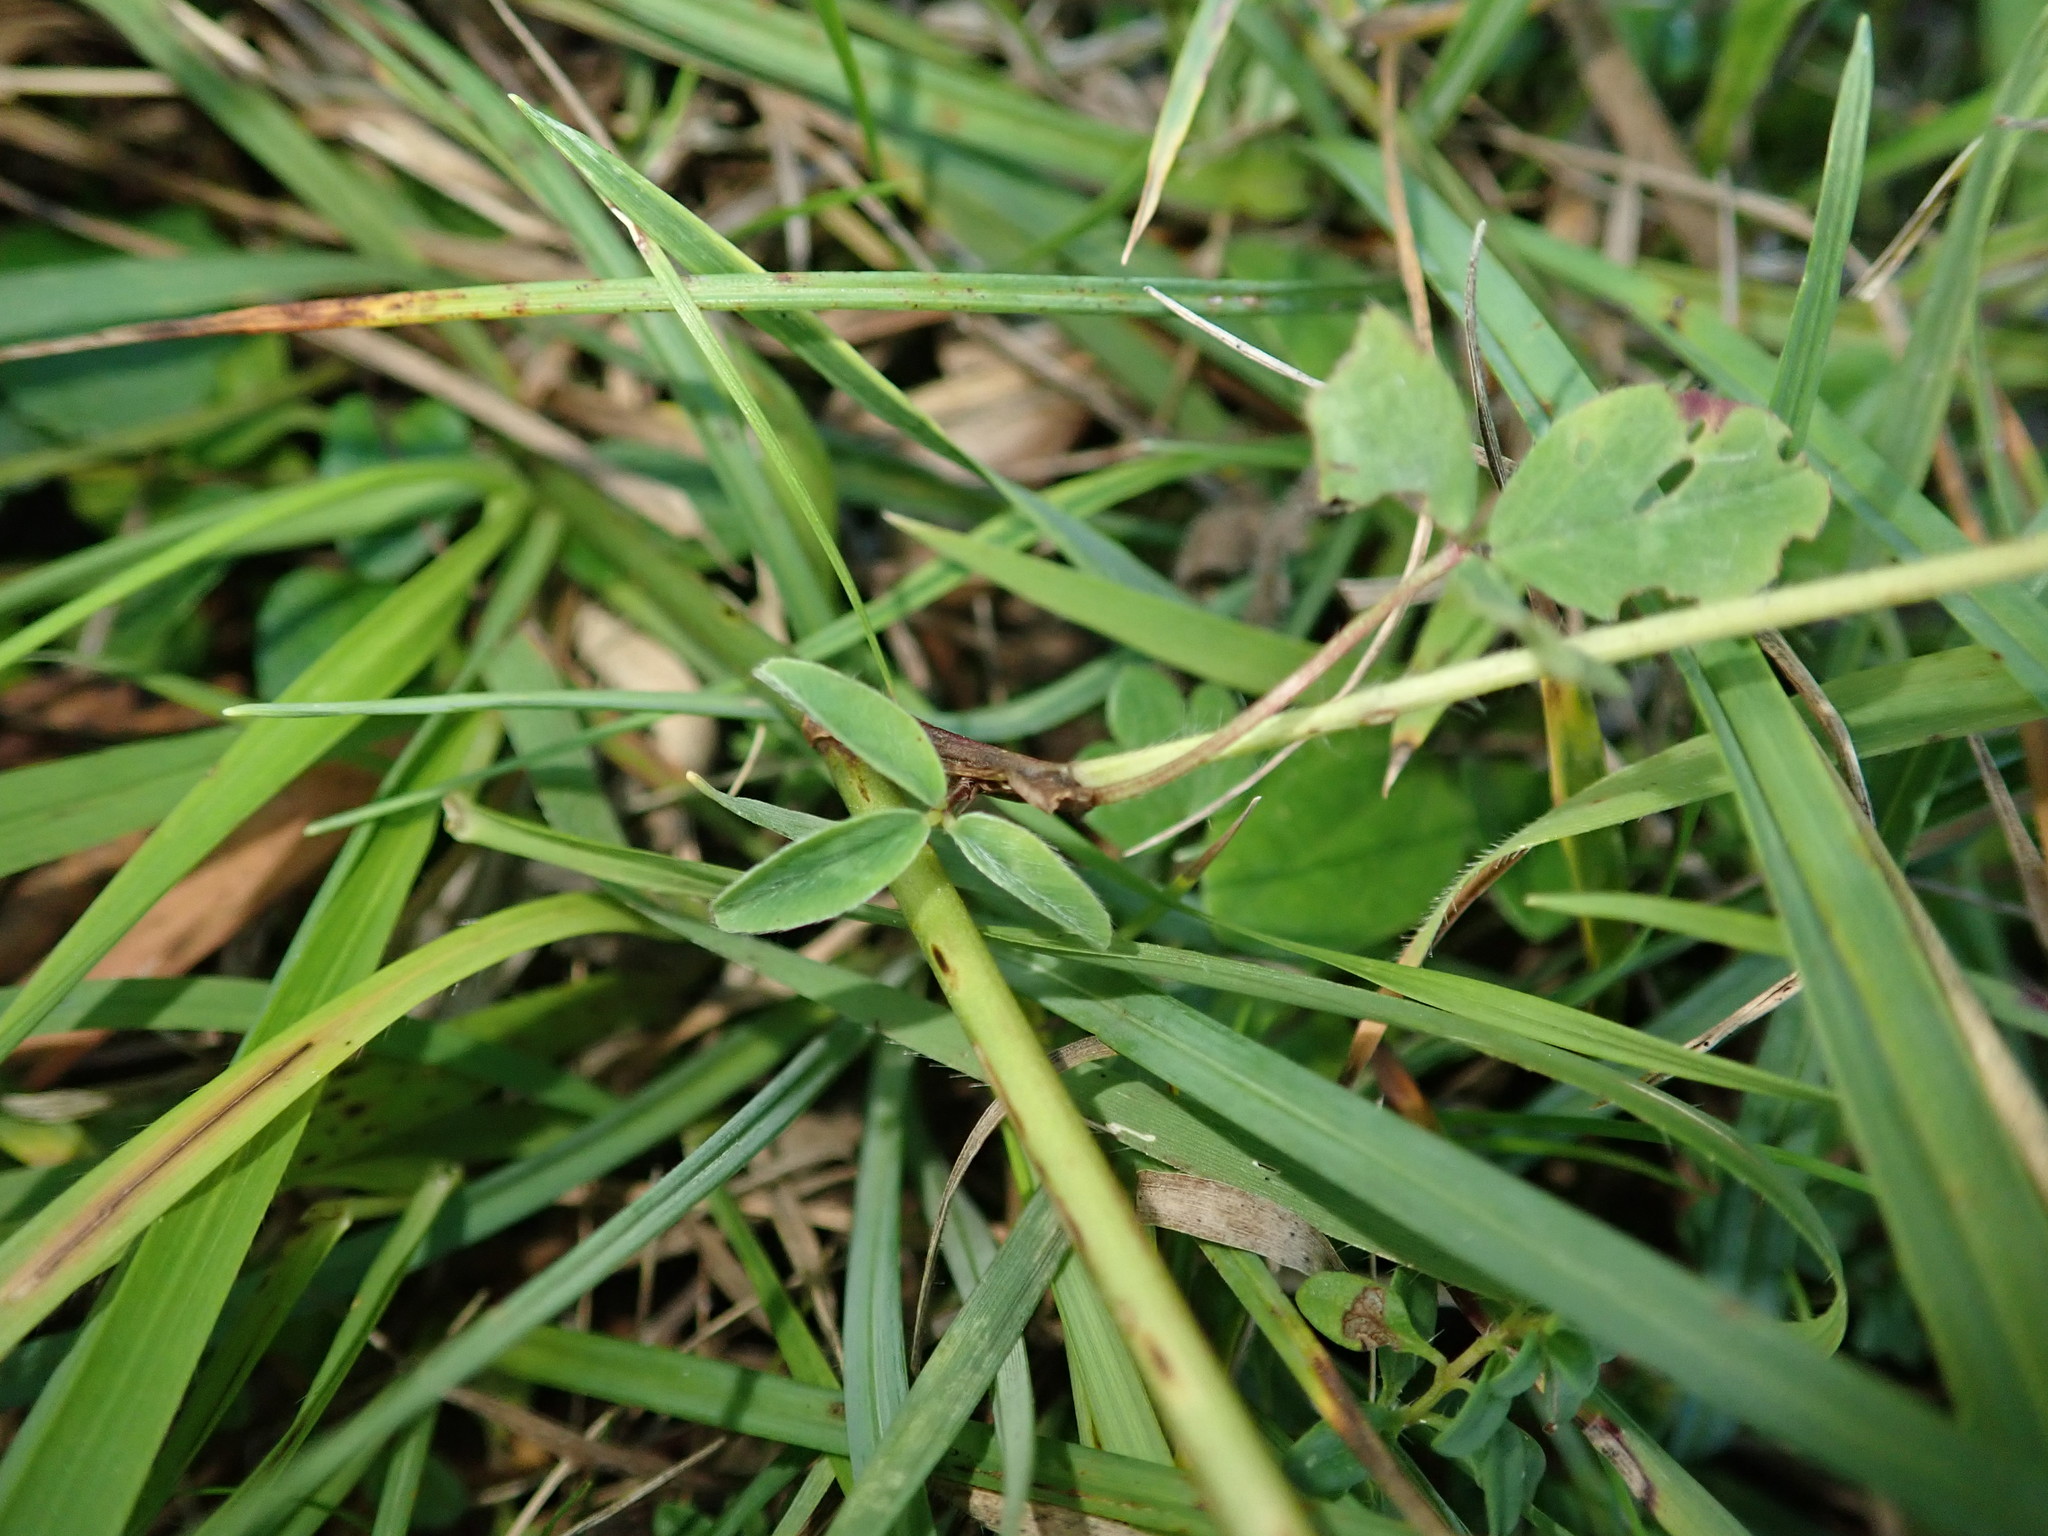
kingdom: Plantae
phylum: Tracheophyta
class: Magnoliopsida
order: Fabales
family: Fabaceae
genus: Trifolium
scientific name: Trifolium pratense
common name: Red clover
